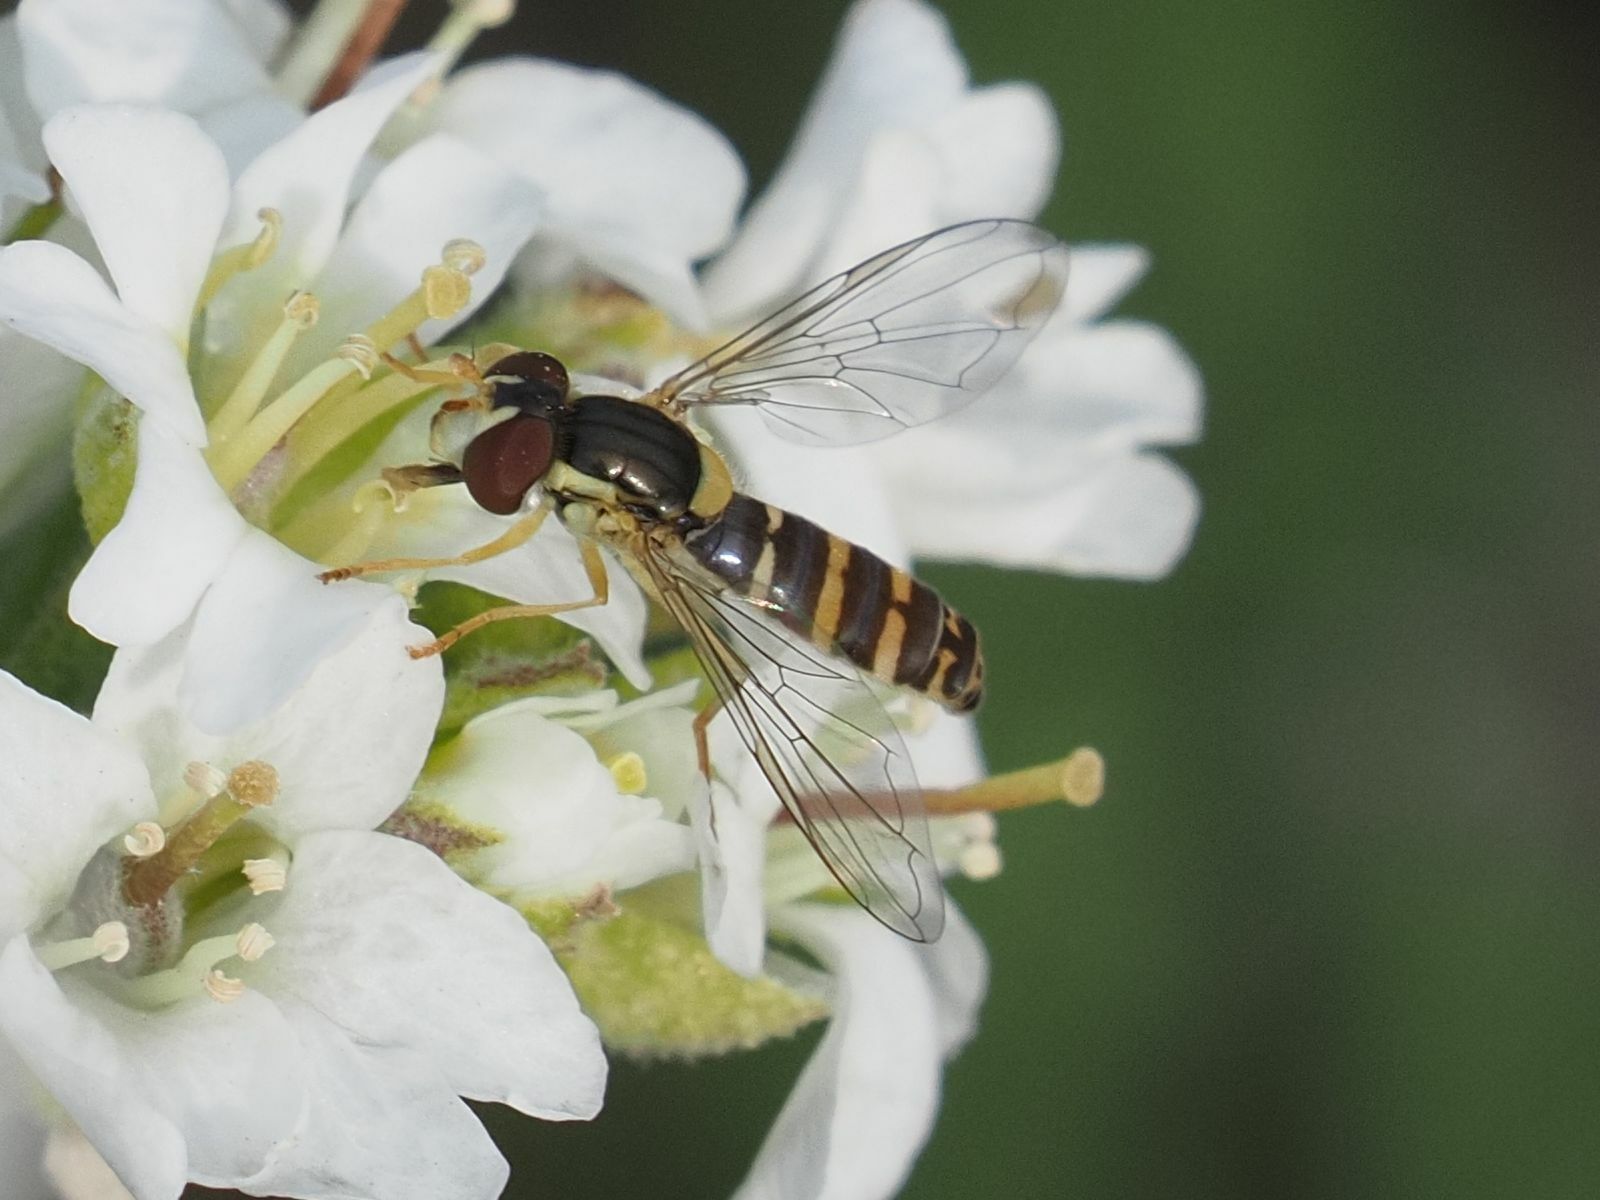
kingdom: Animalia
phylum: Arthropoda
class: Insecta
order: Diptera
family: Syrphidae
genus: Sphaerophoria
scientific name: Sphaerophoria
